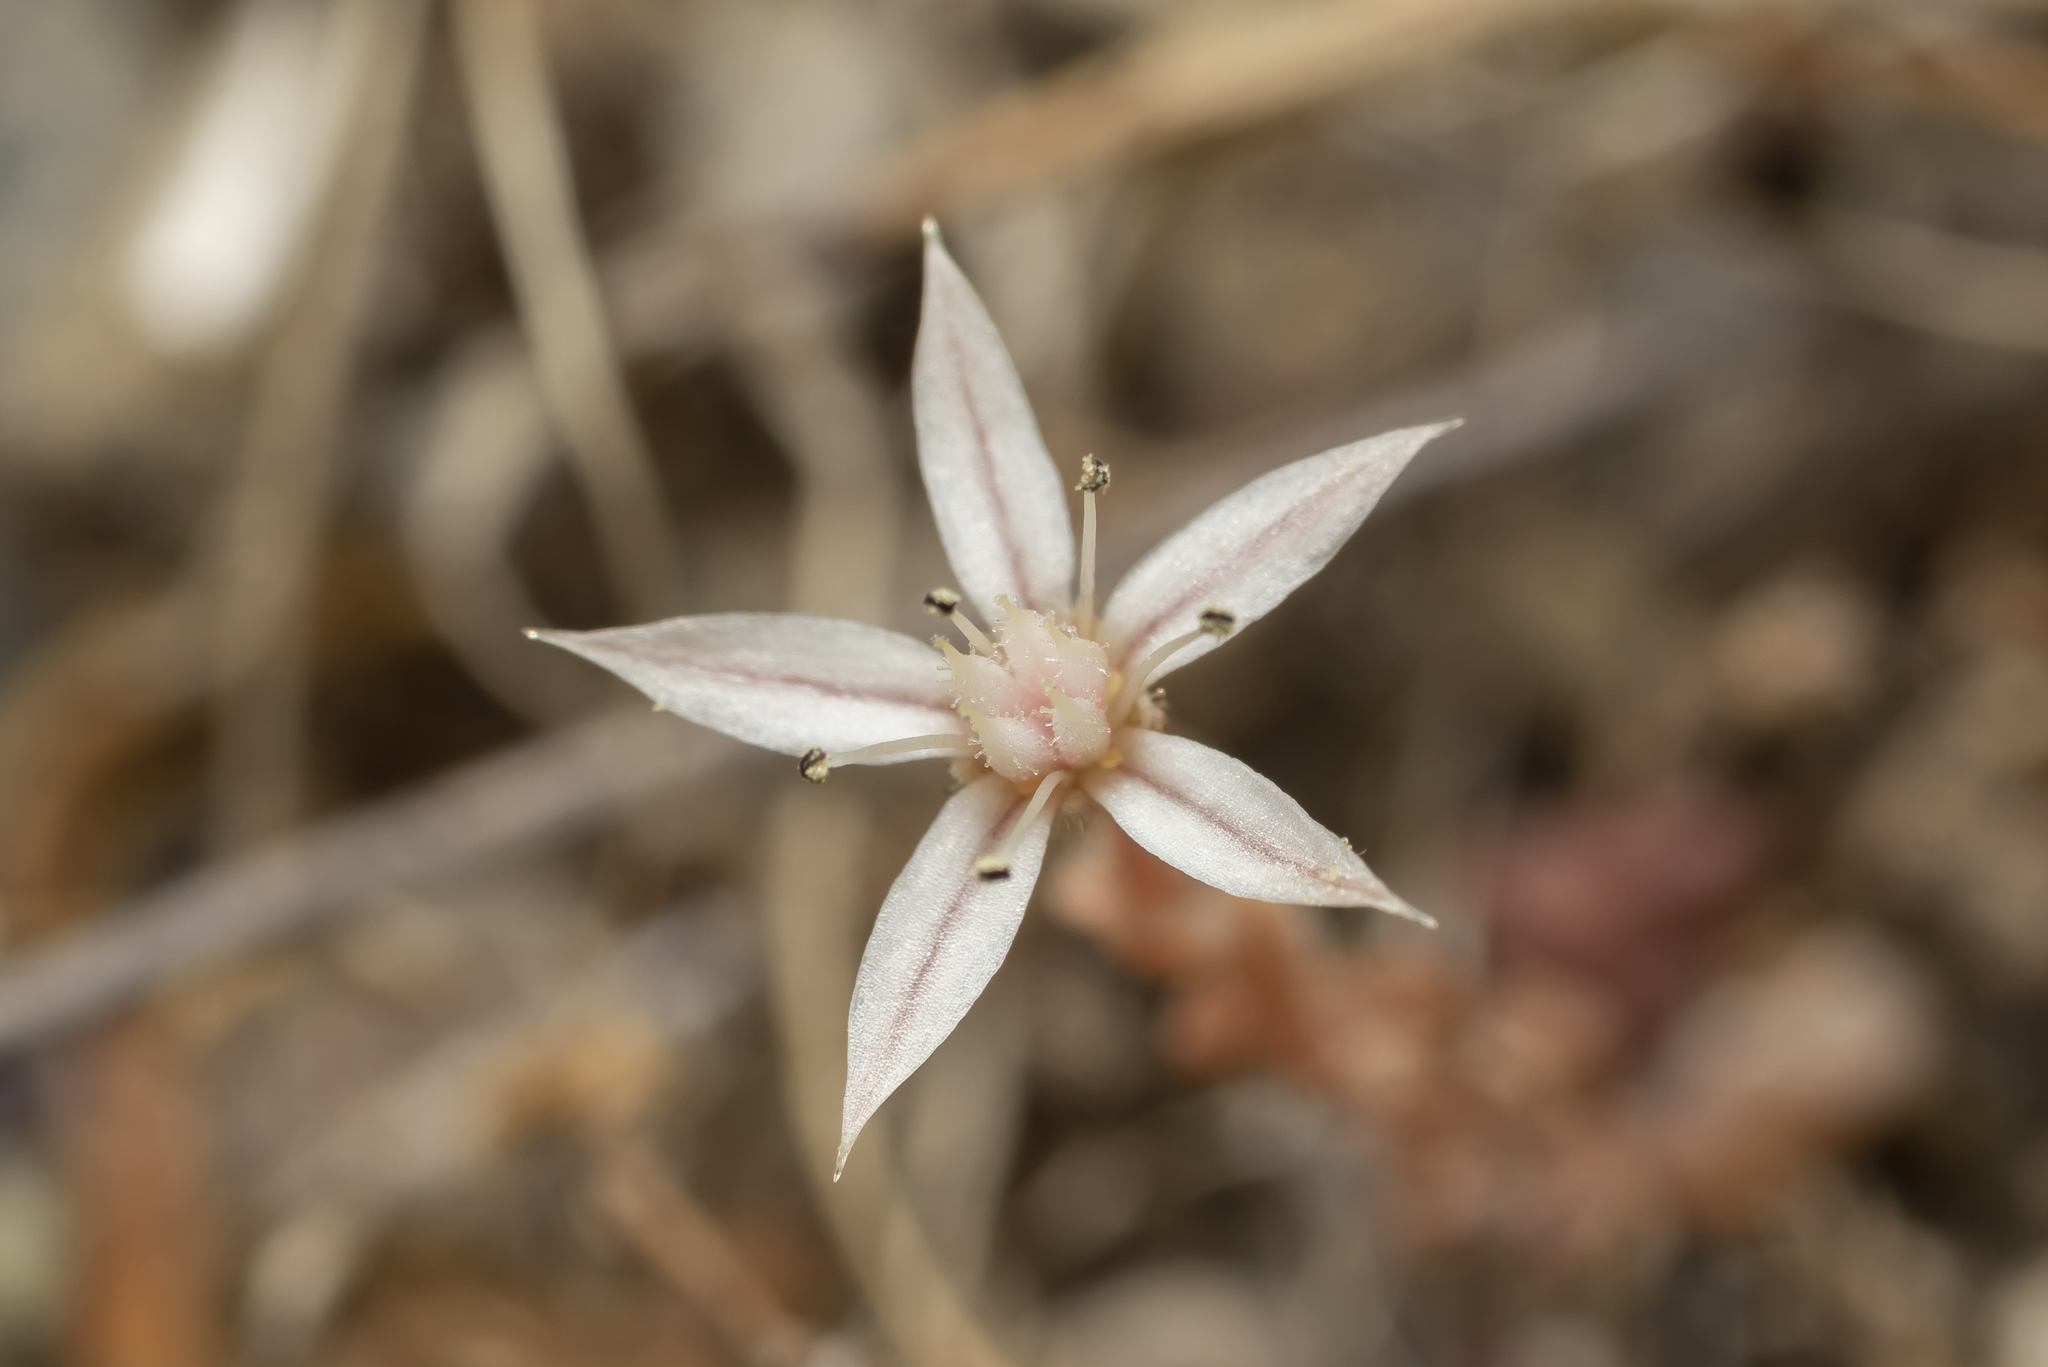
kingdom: Plantae
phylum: Tracheophyta
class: Magnoliopsida
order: Saxifragales
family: Crassulaceae
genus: Sedum
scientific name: Sedum rubens
